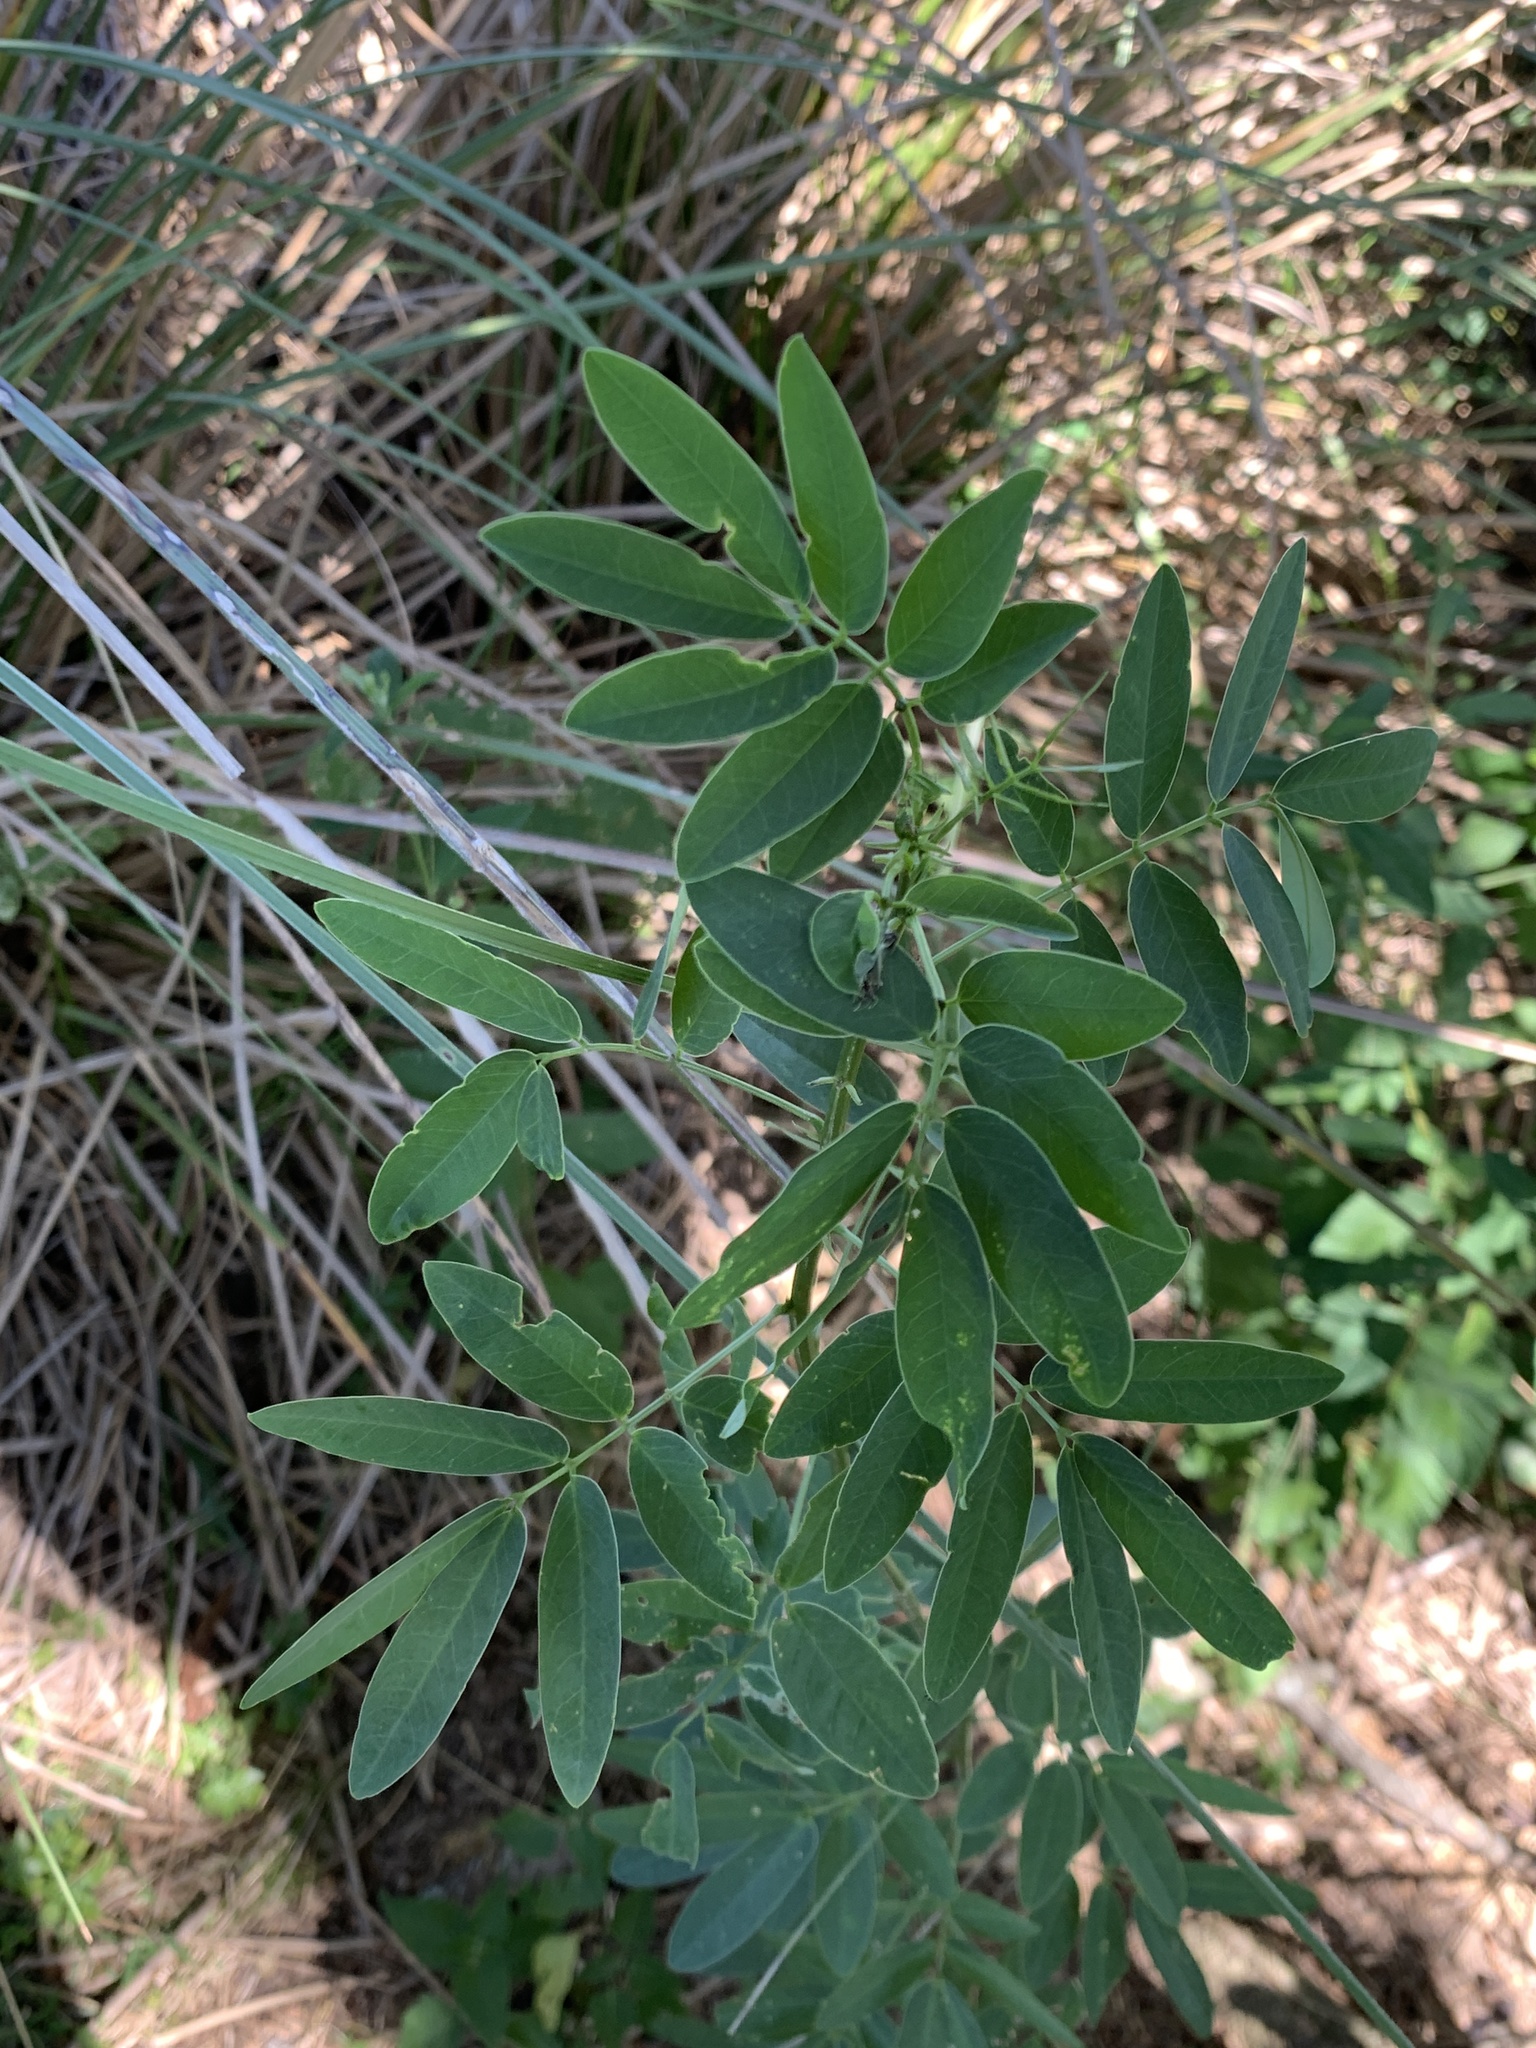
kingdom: Plantae
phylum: Tracheophyta
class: Magnoliopsida
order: Fabales
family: Fabaceae
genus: Senna
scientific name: Senna pendula
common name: Easter cassia
